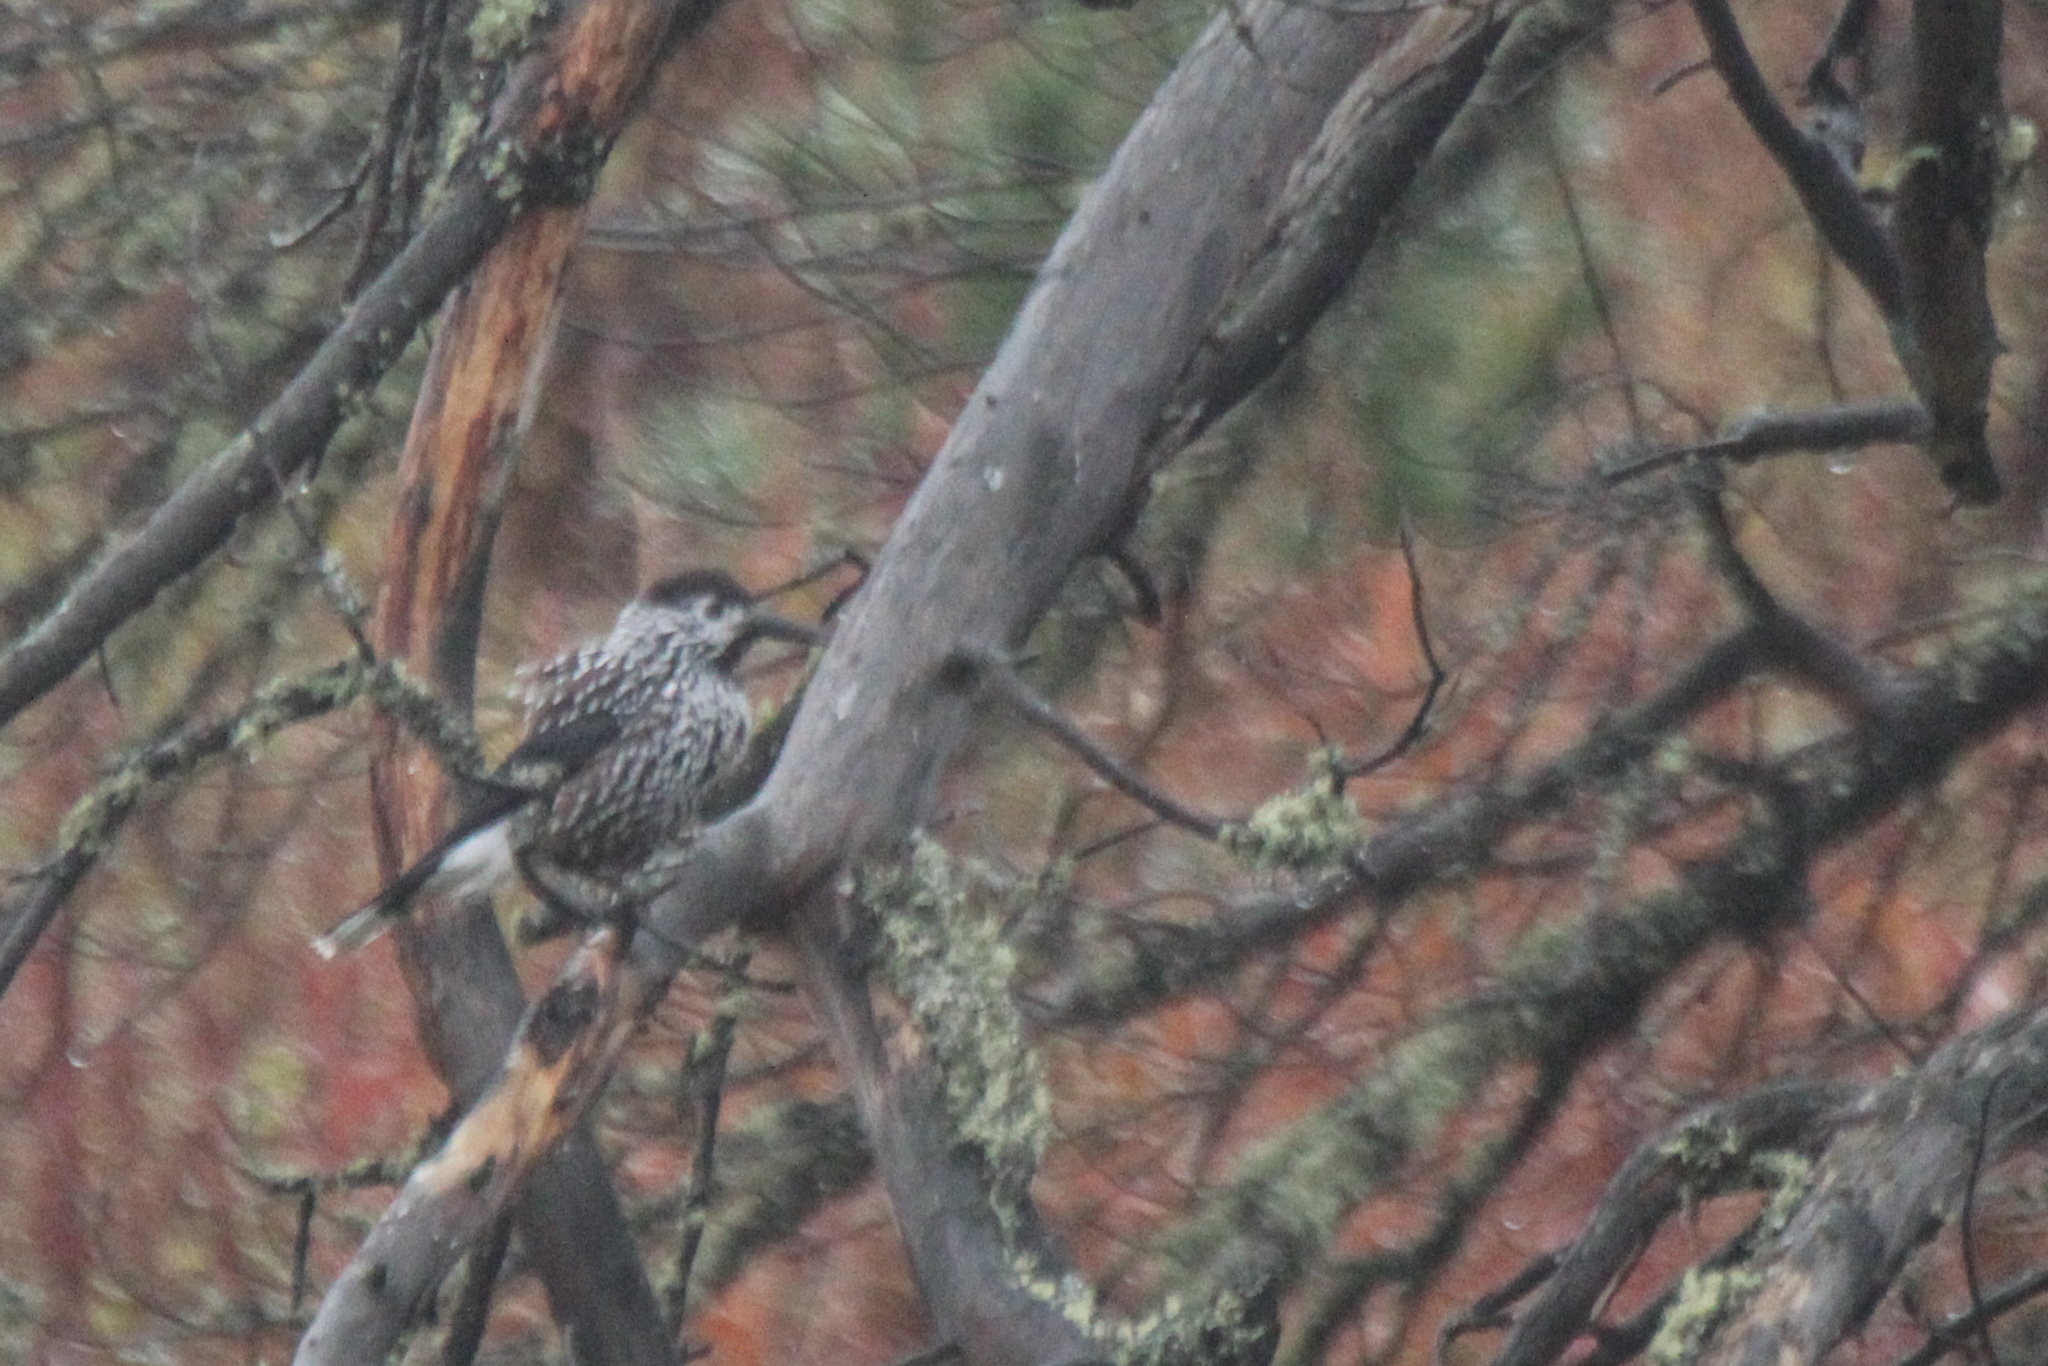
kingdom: Animalia
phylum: Chordata
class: Aves
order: Passeriformes
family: Corvidae
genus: Nucifraga
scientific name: Nucifraga caryocatactes
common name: Spotted nutcracker
